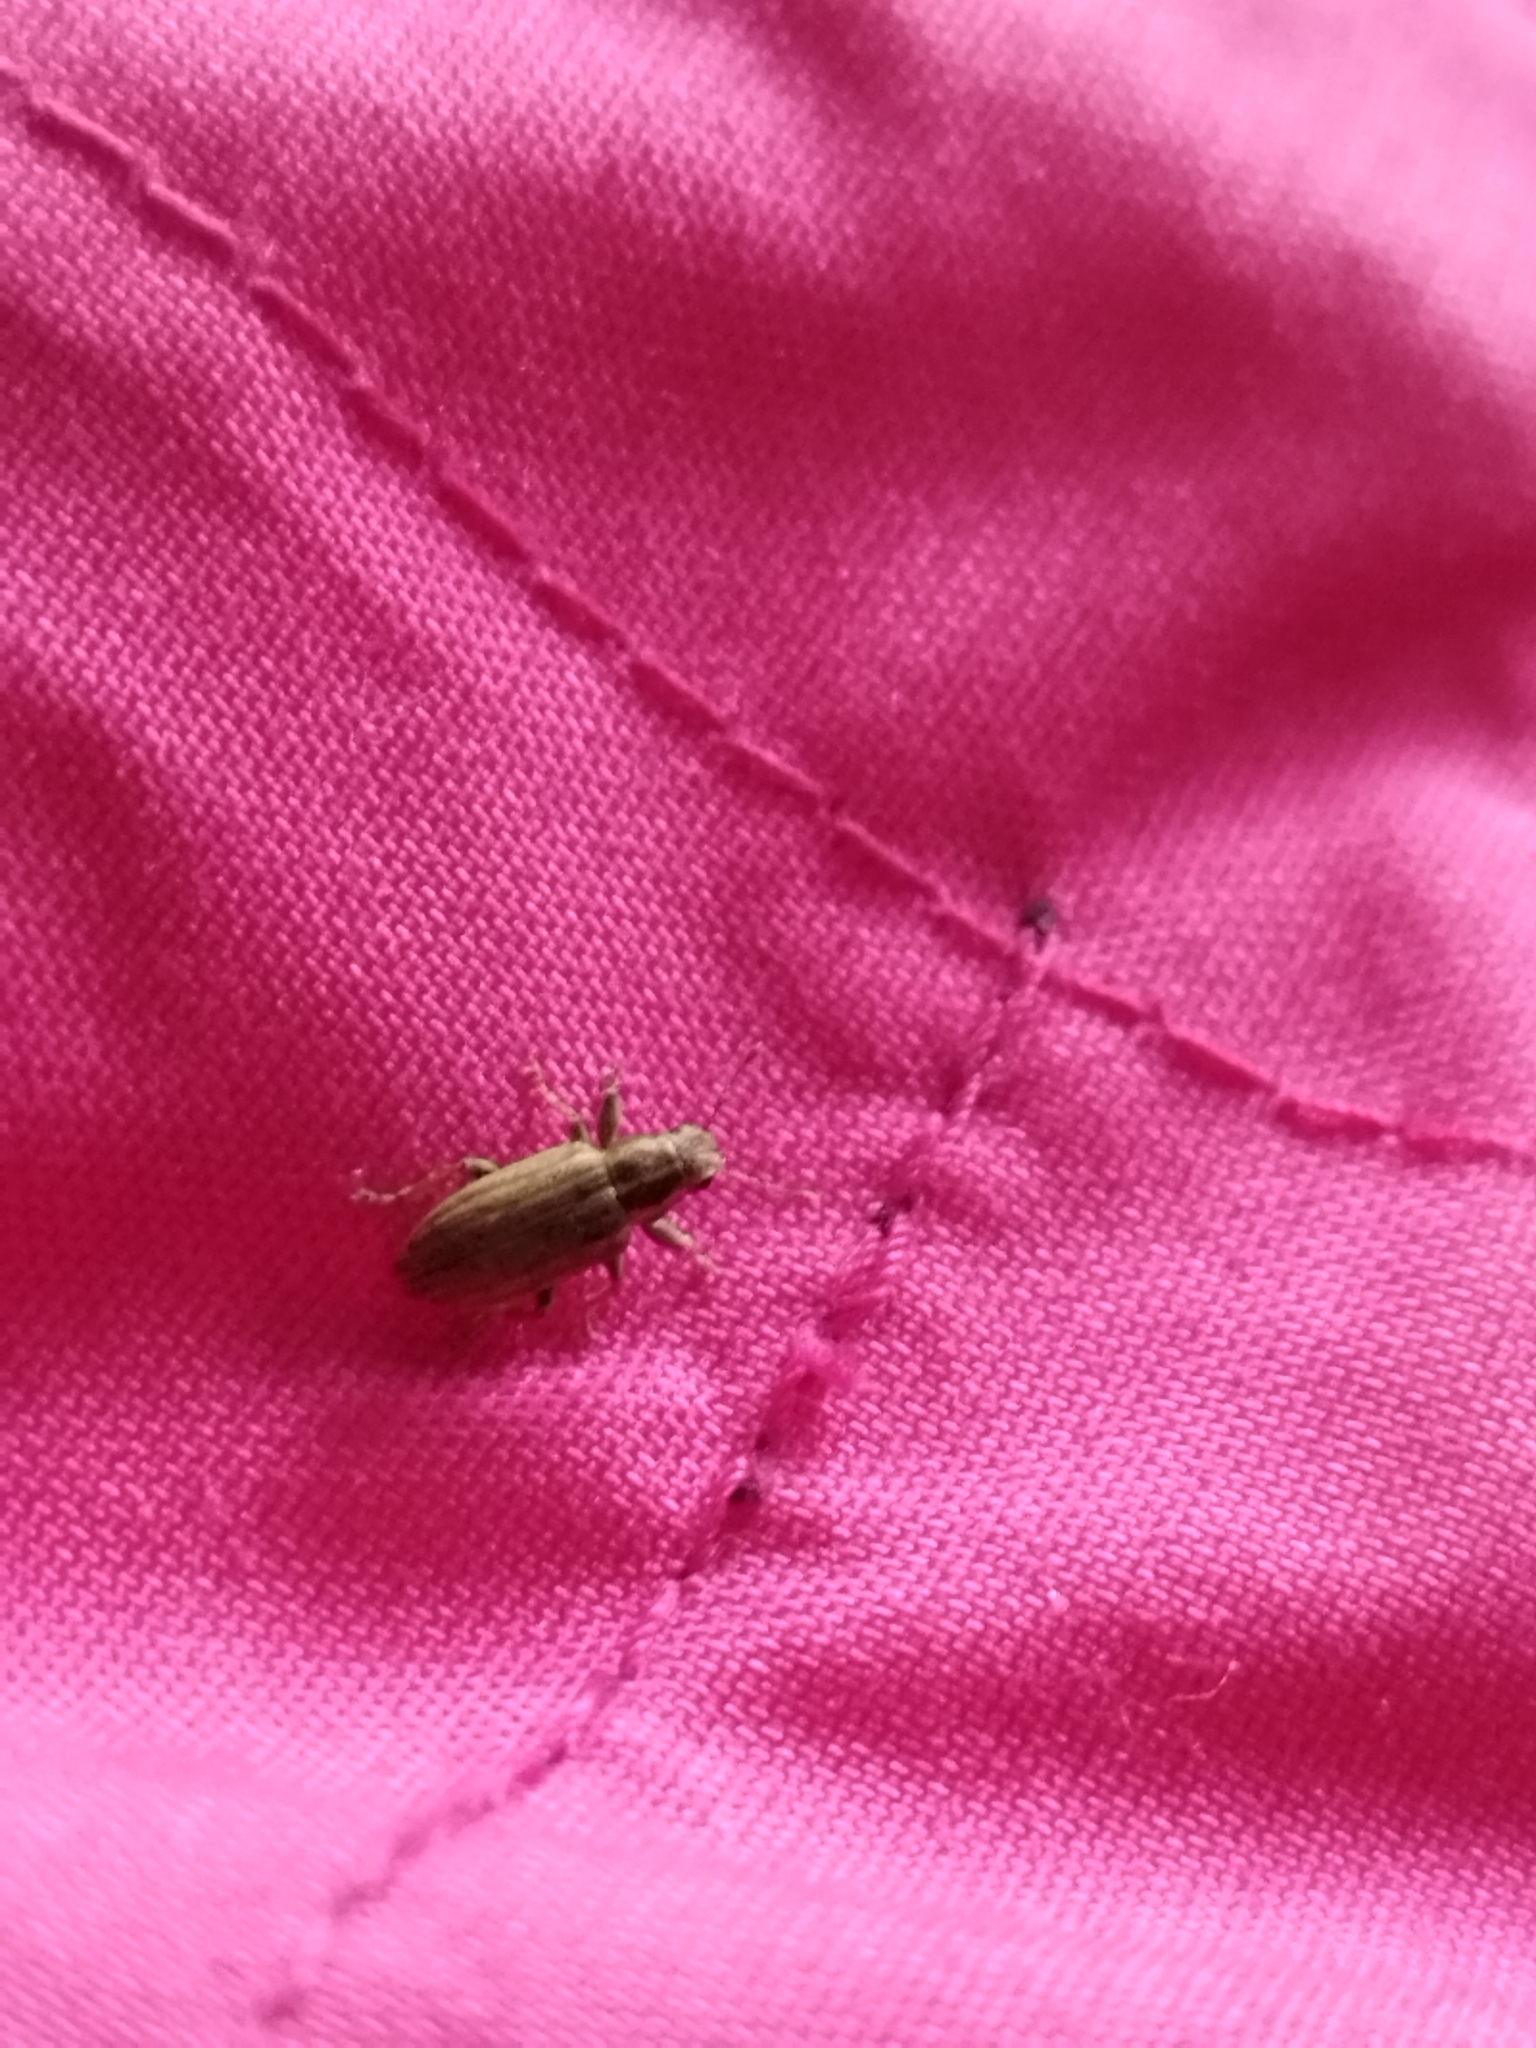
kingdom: Animalia
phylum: Arthropoda
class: Insecta
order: Coleoptera
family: Curculionidae
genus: Sitona
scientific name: Sitona lineatus
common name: Weevil
